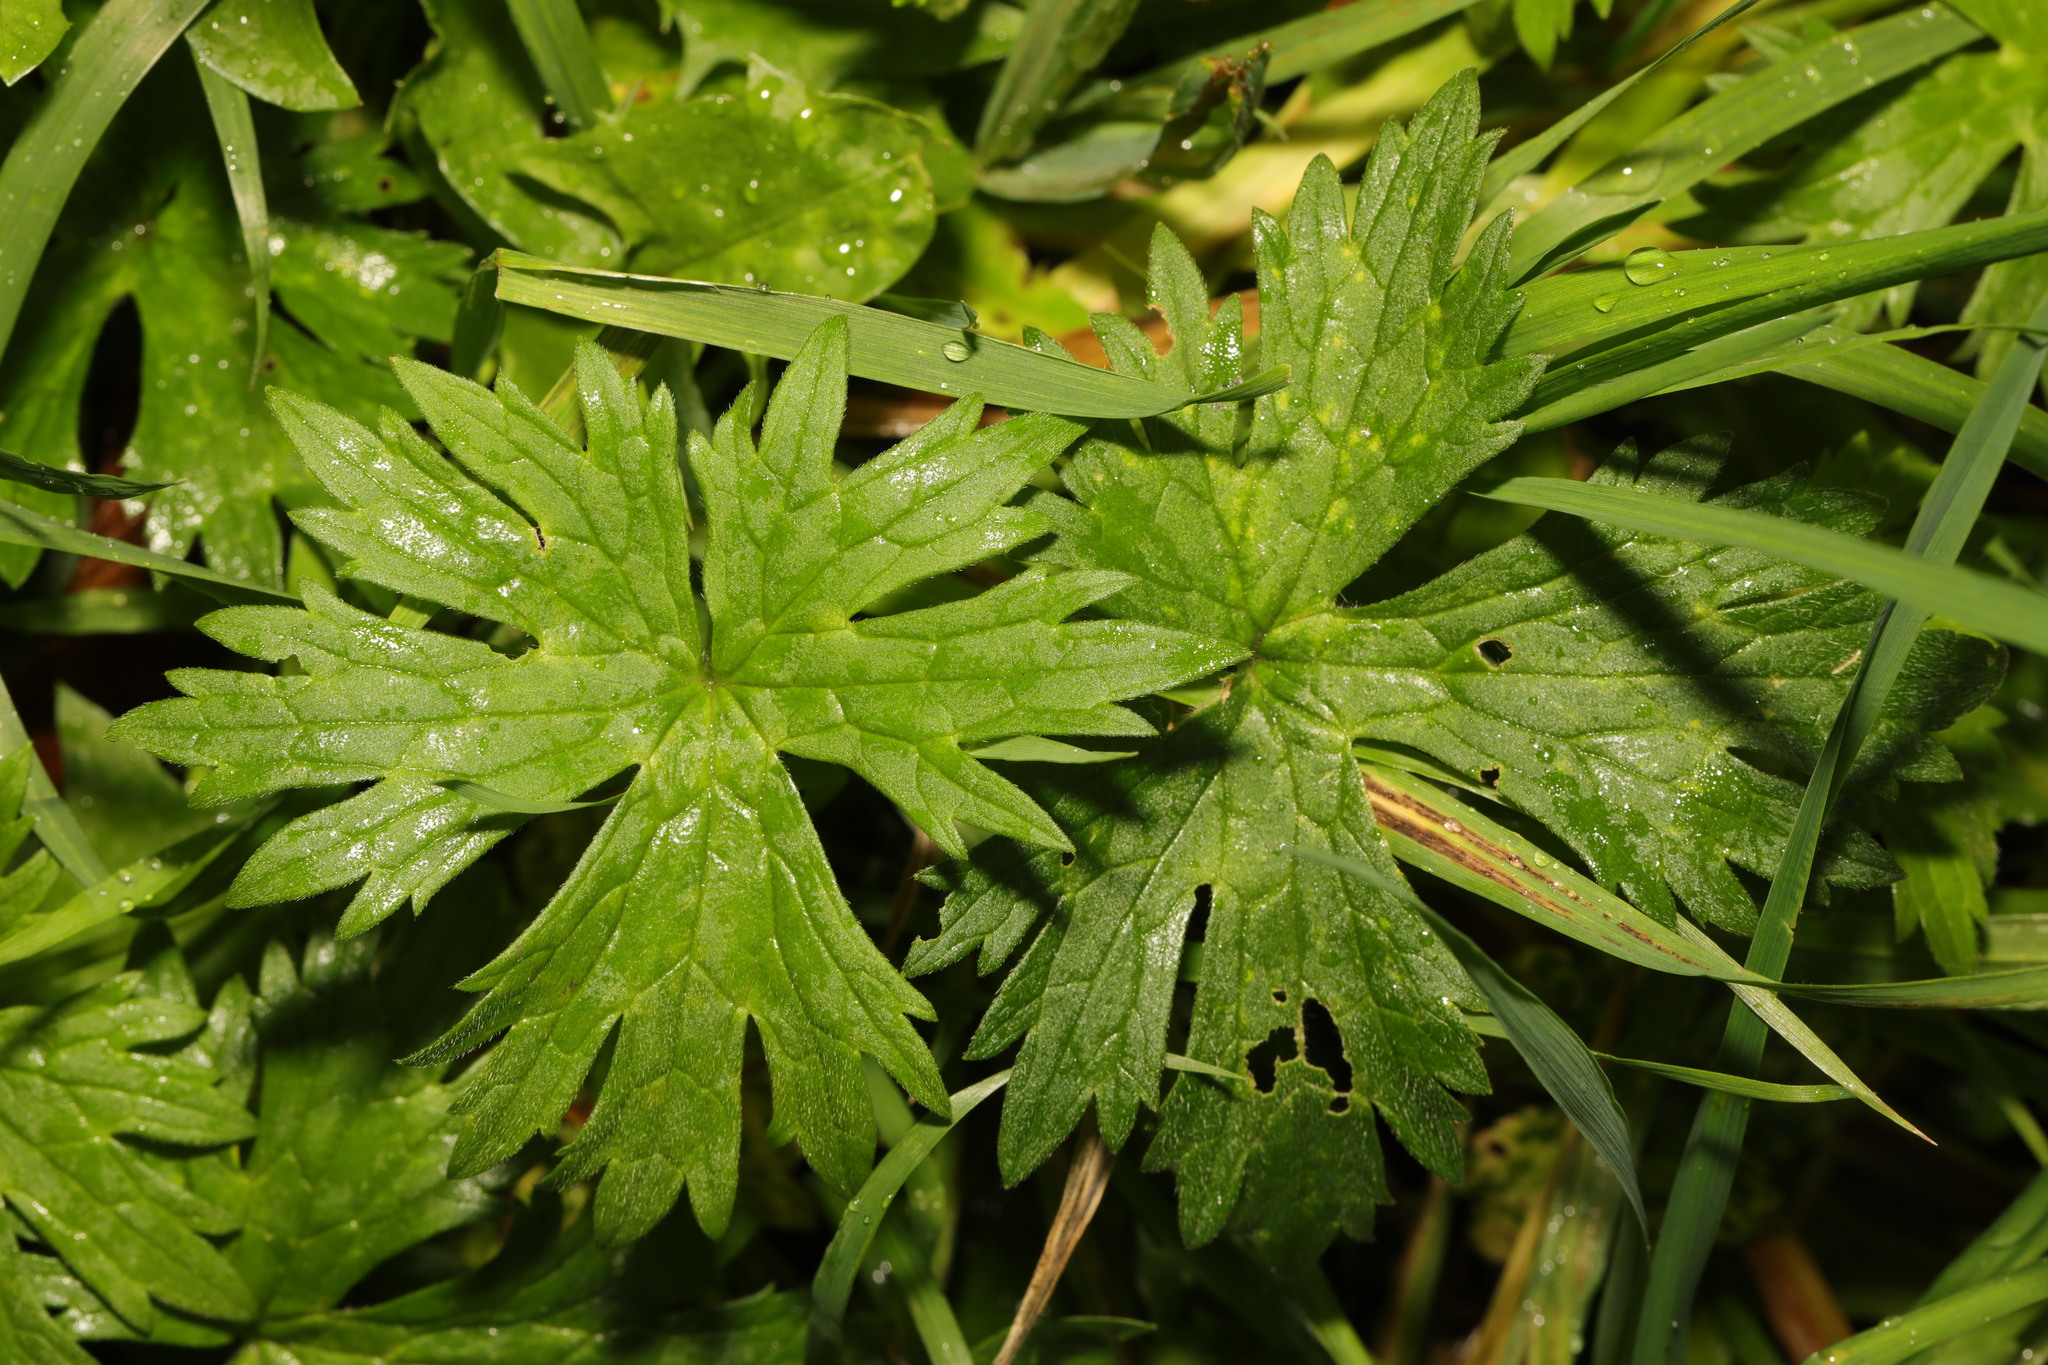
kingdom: Plantae
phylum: Tracheophyta
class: Magnoliopsida
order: Ranunculales
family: Ranunculaceae
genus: Ranunculus
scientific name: Ranunculus acris
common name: Meadow buttercup
